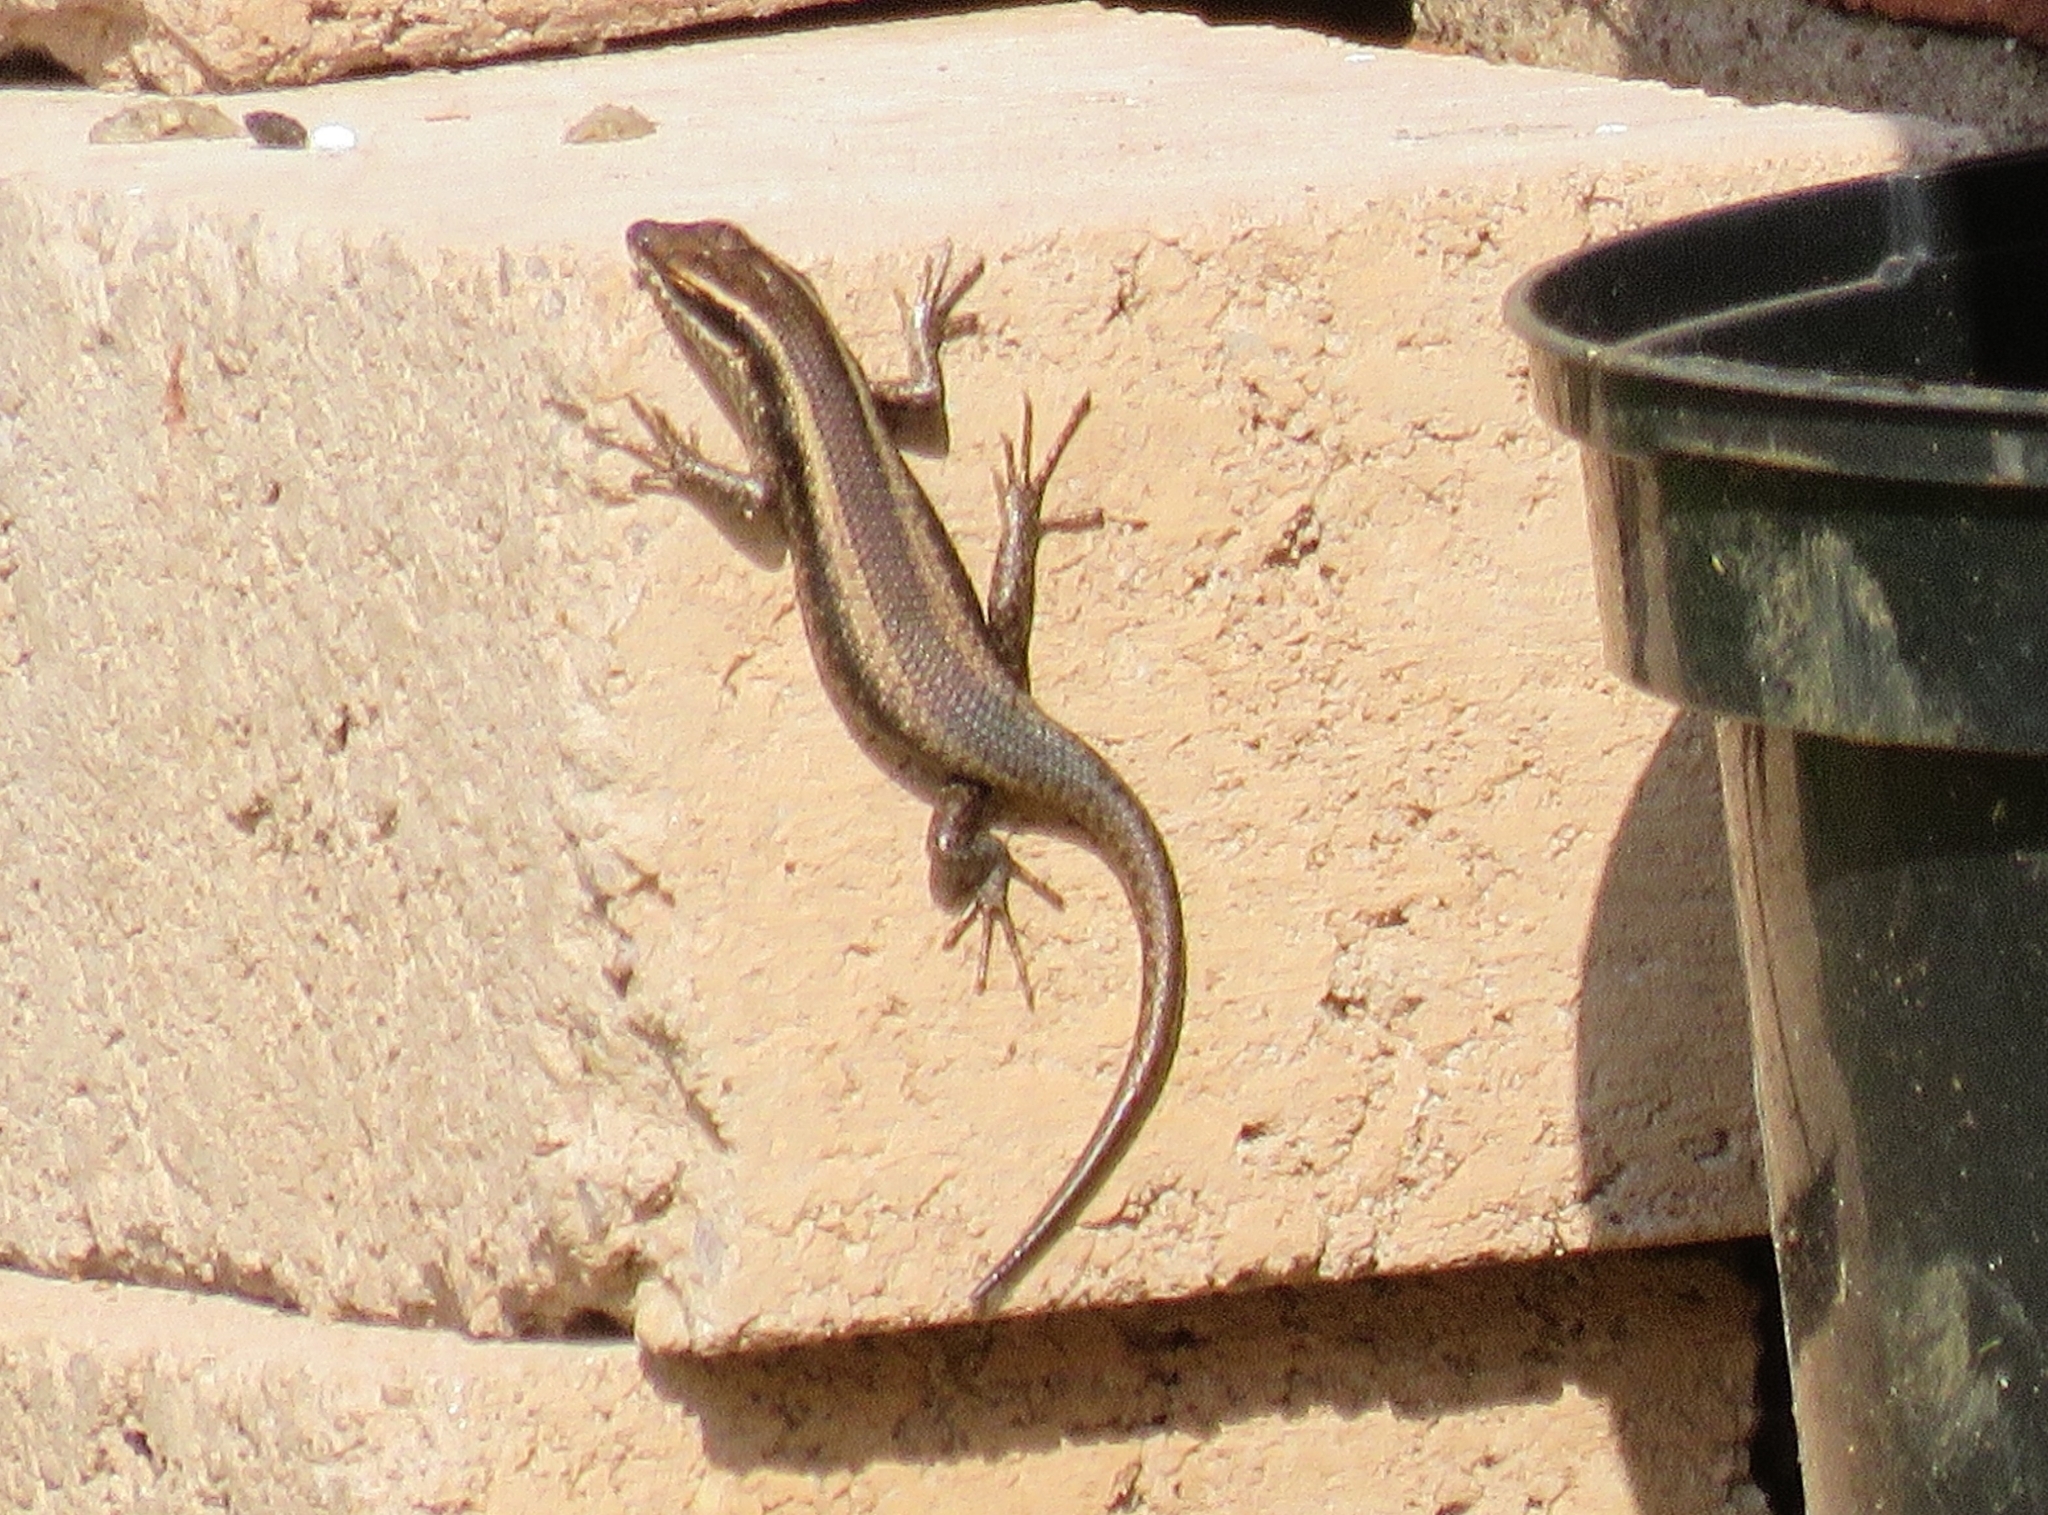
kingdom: Animalia
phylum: Chordata
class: Squamata
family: Scincidae
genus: Trachylepis
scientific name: Trachylepis striata
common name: African striped mabuya
